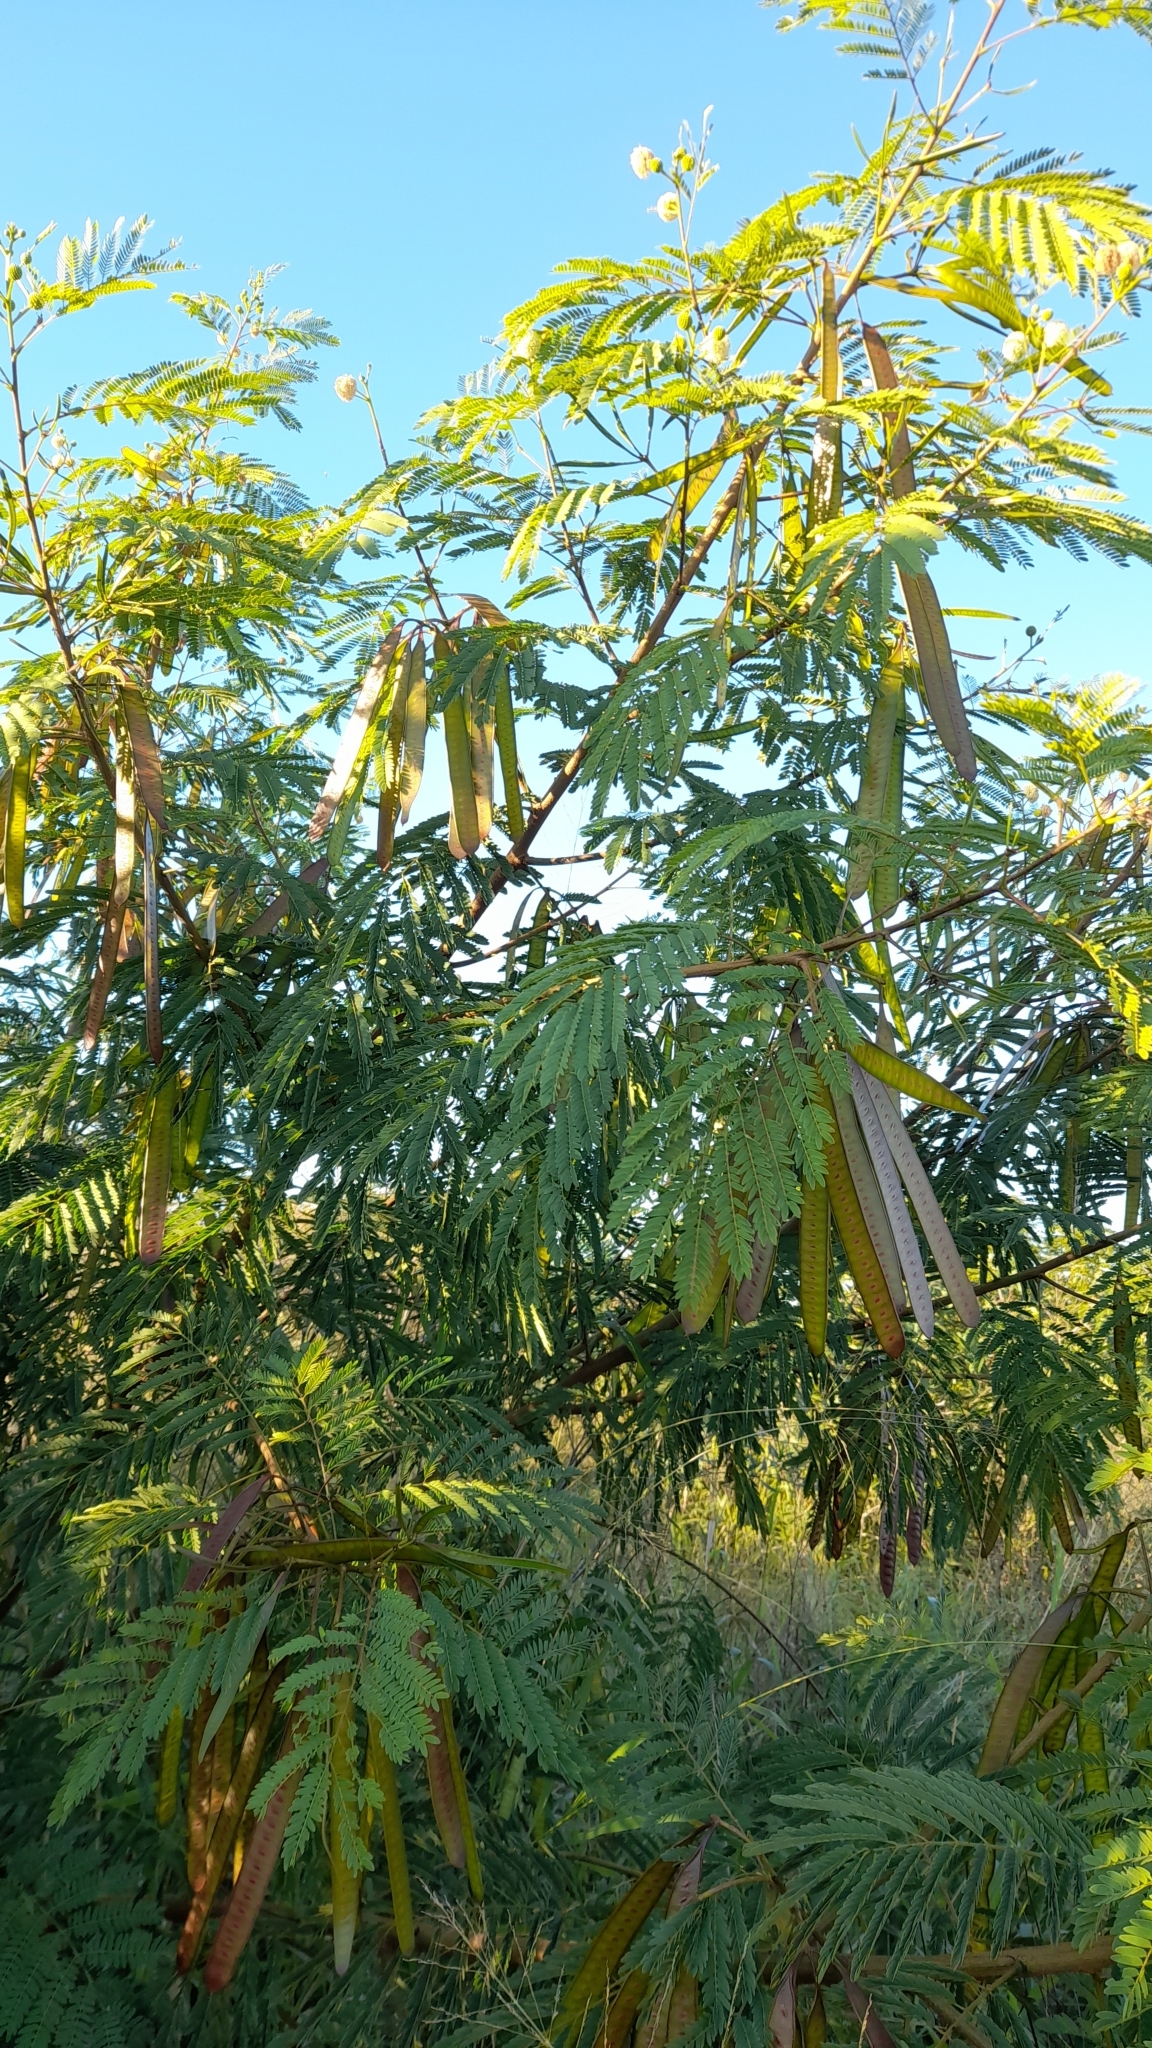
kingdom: Plantae
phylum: Tracheophyta
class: Magnoliopsida
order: Fabales
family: Fabaceae
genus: Leucaena
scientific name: Leucaena leucocephala
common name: White leadtree
